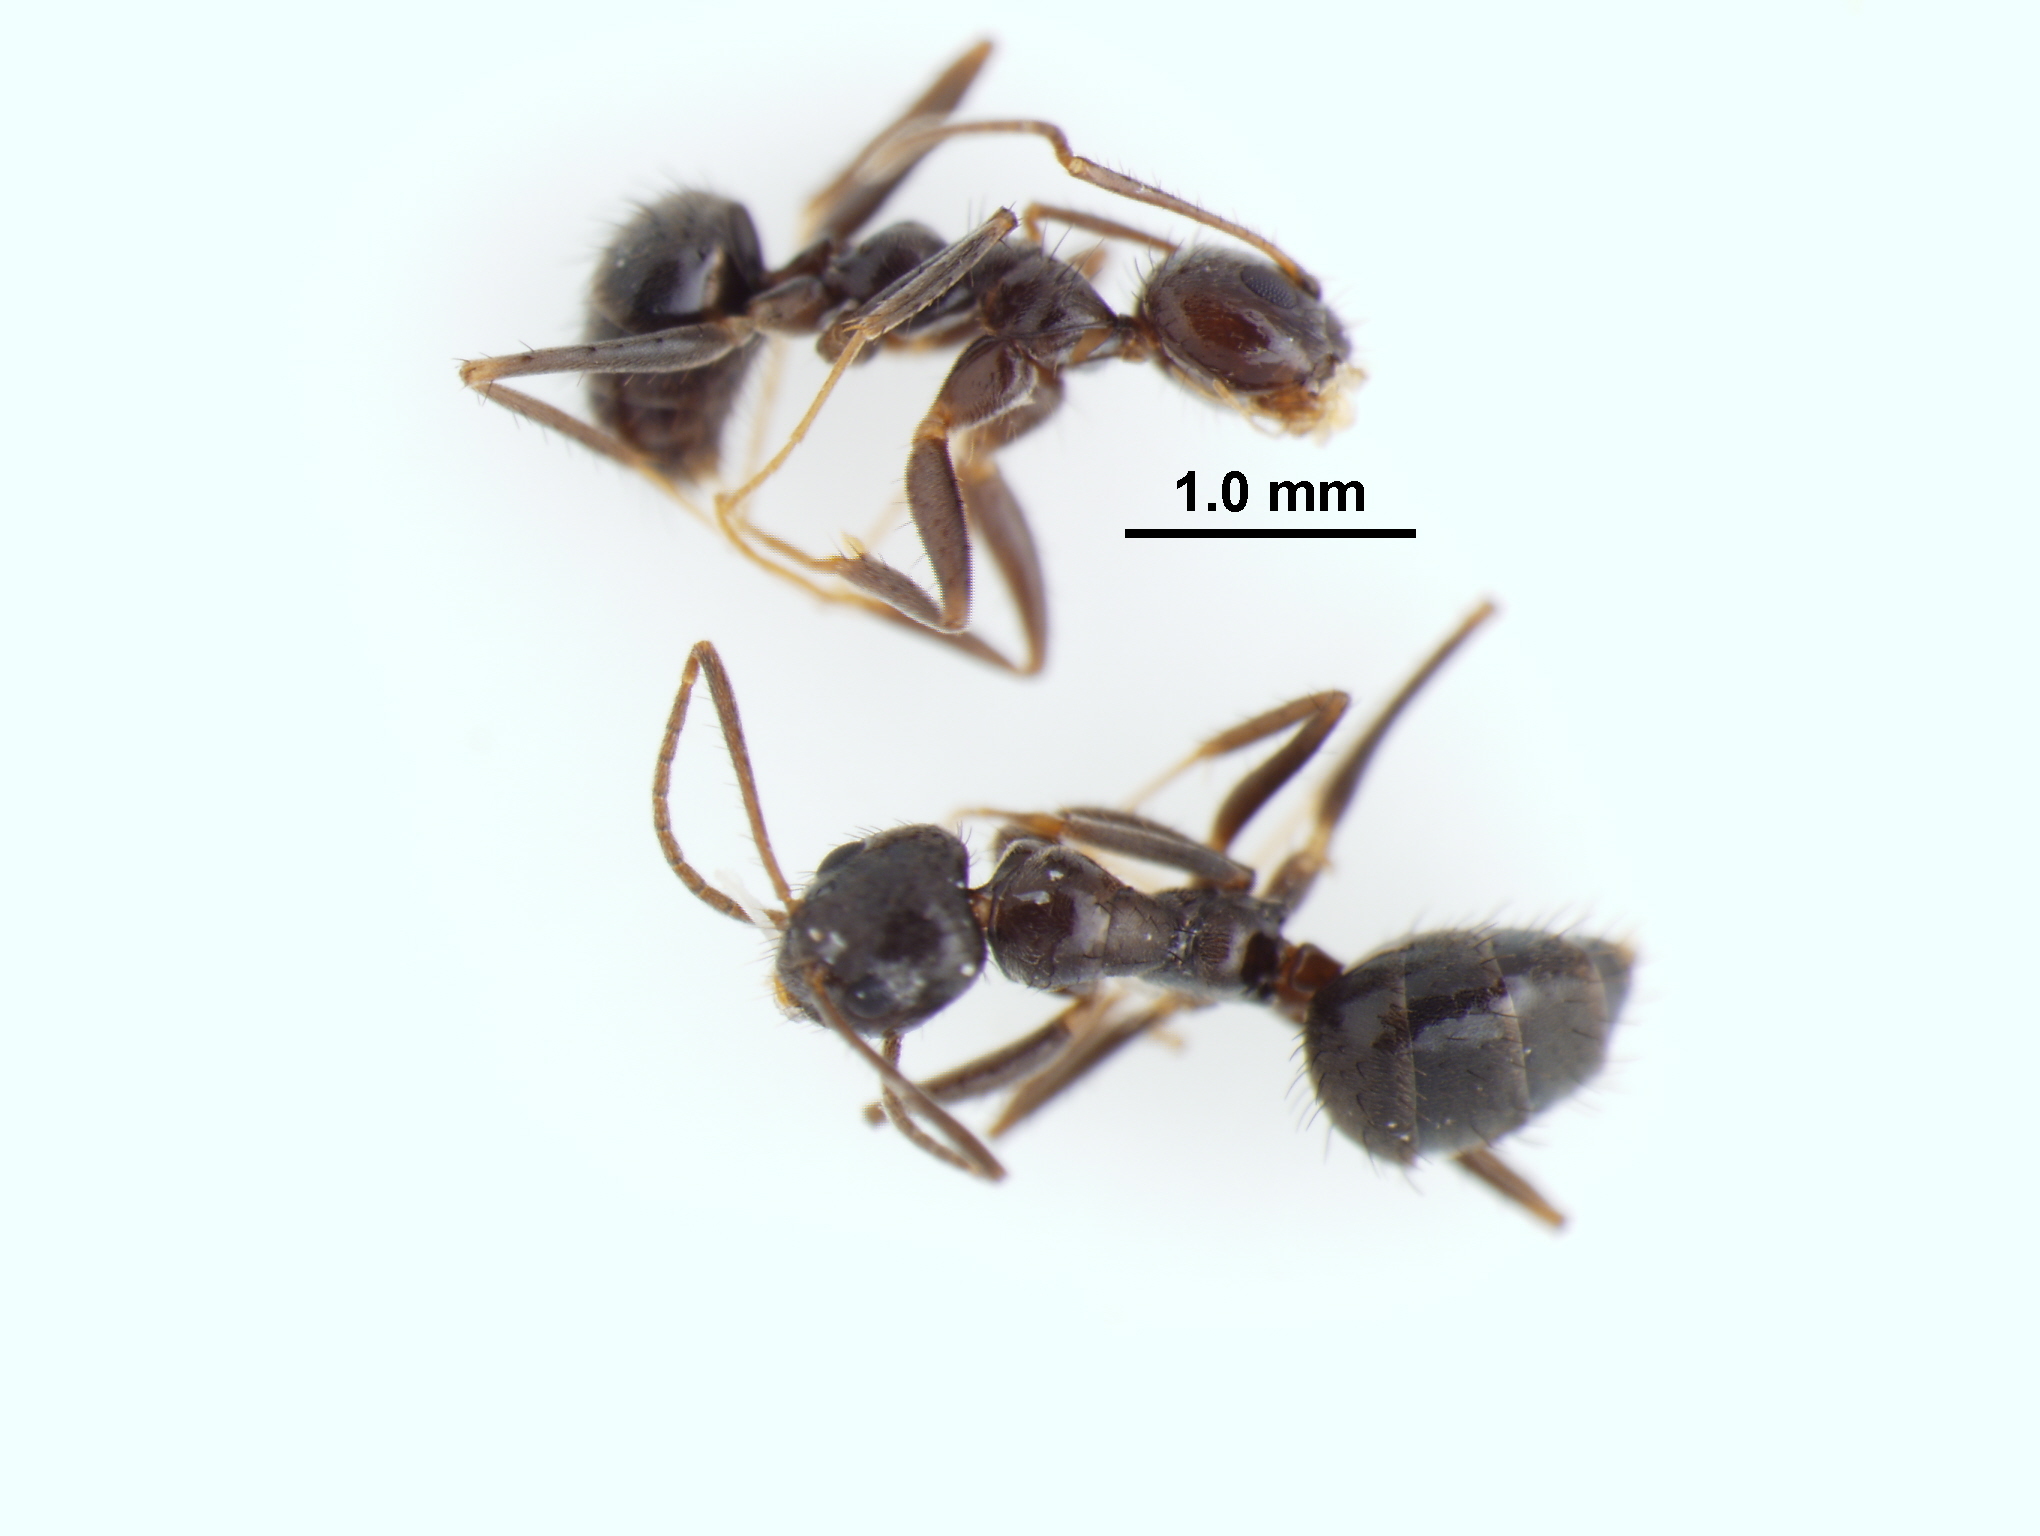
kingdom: Animalia
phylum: Arthropoda
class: Insecta
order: Hymenoptera
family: Formicidae
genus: Paratrechina
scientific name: Paratrechina bourbonica
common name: Ant
